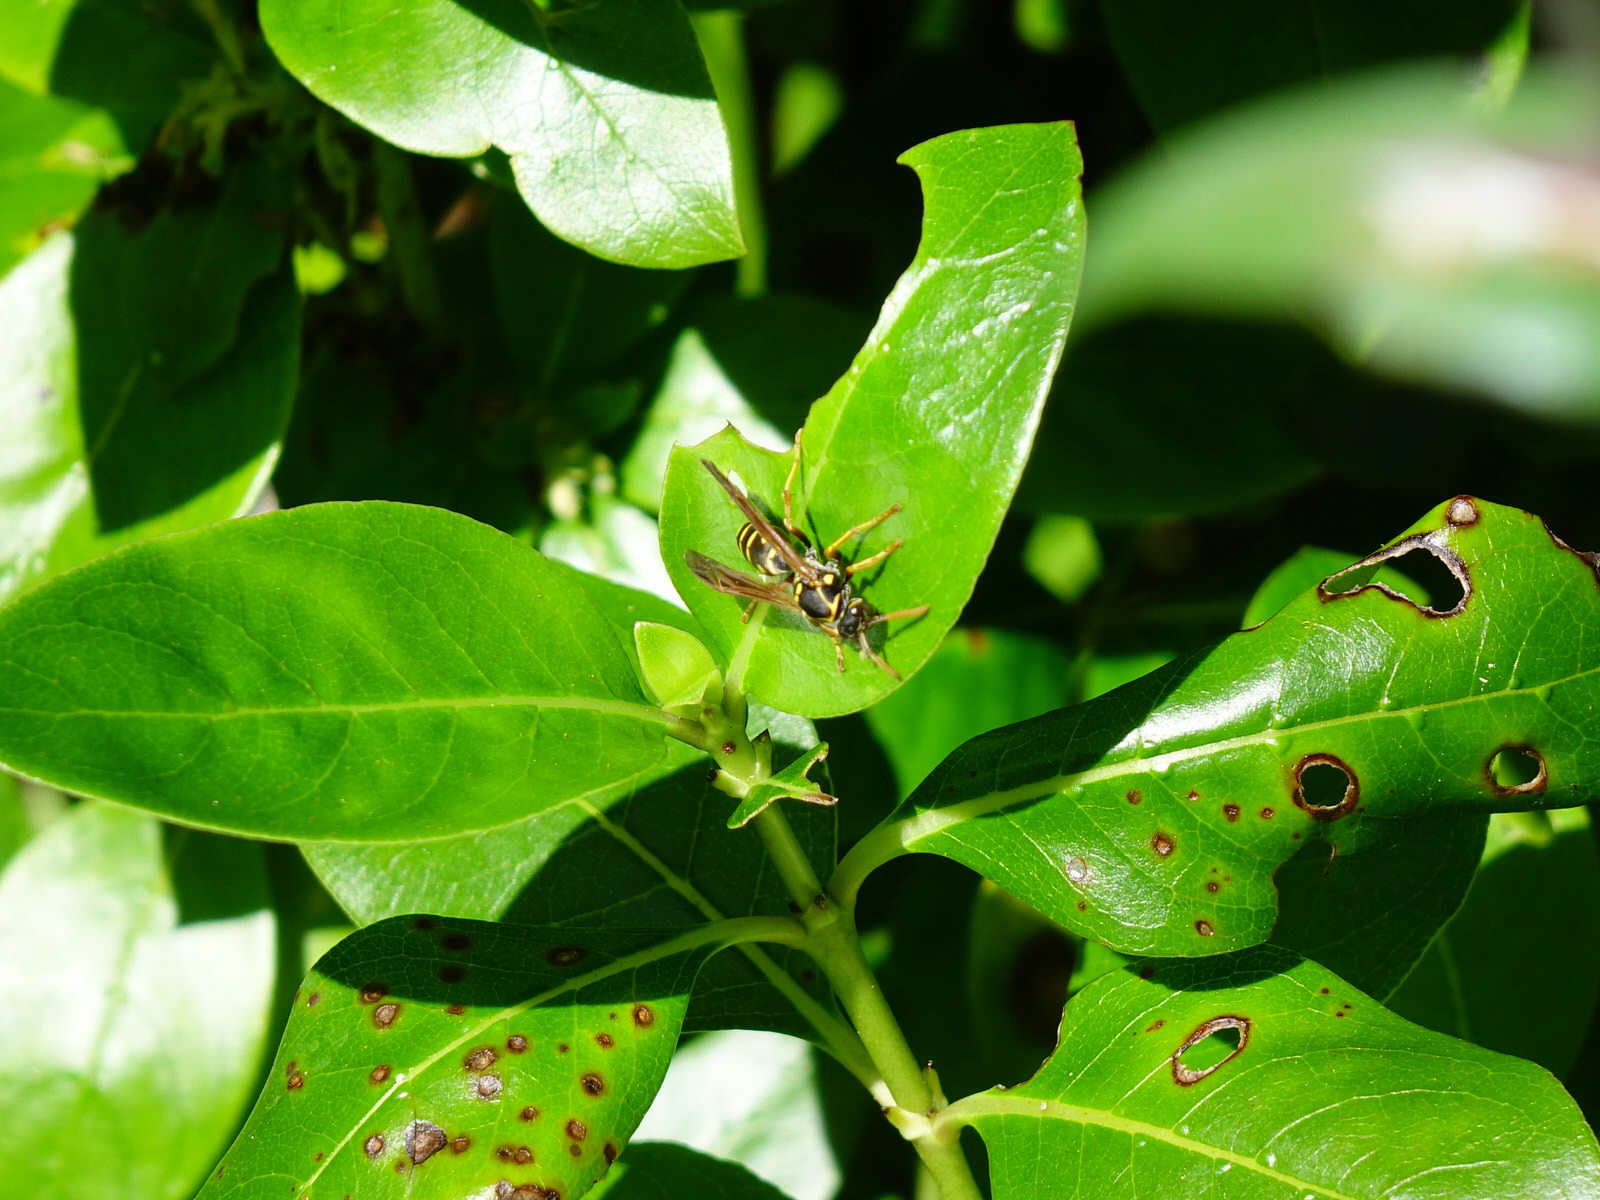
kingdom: Animalia
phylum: Arthropoda
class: Insecta
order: Hymenoptera
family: Eumenidae
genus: Polistes
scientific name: Polistes chinensis
